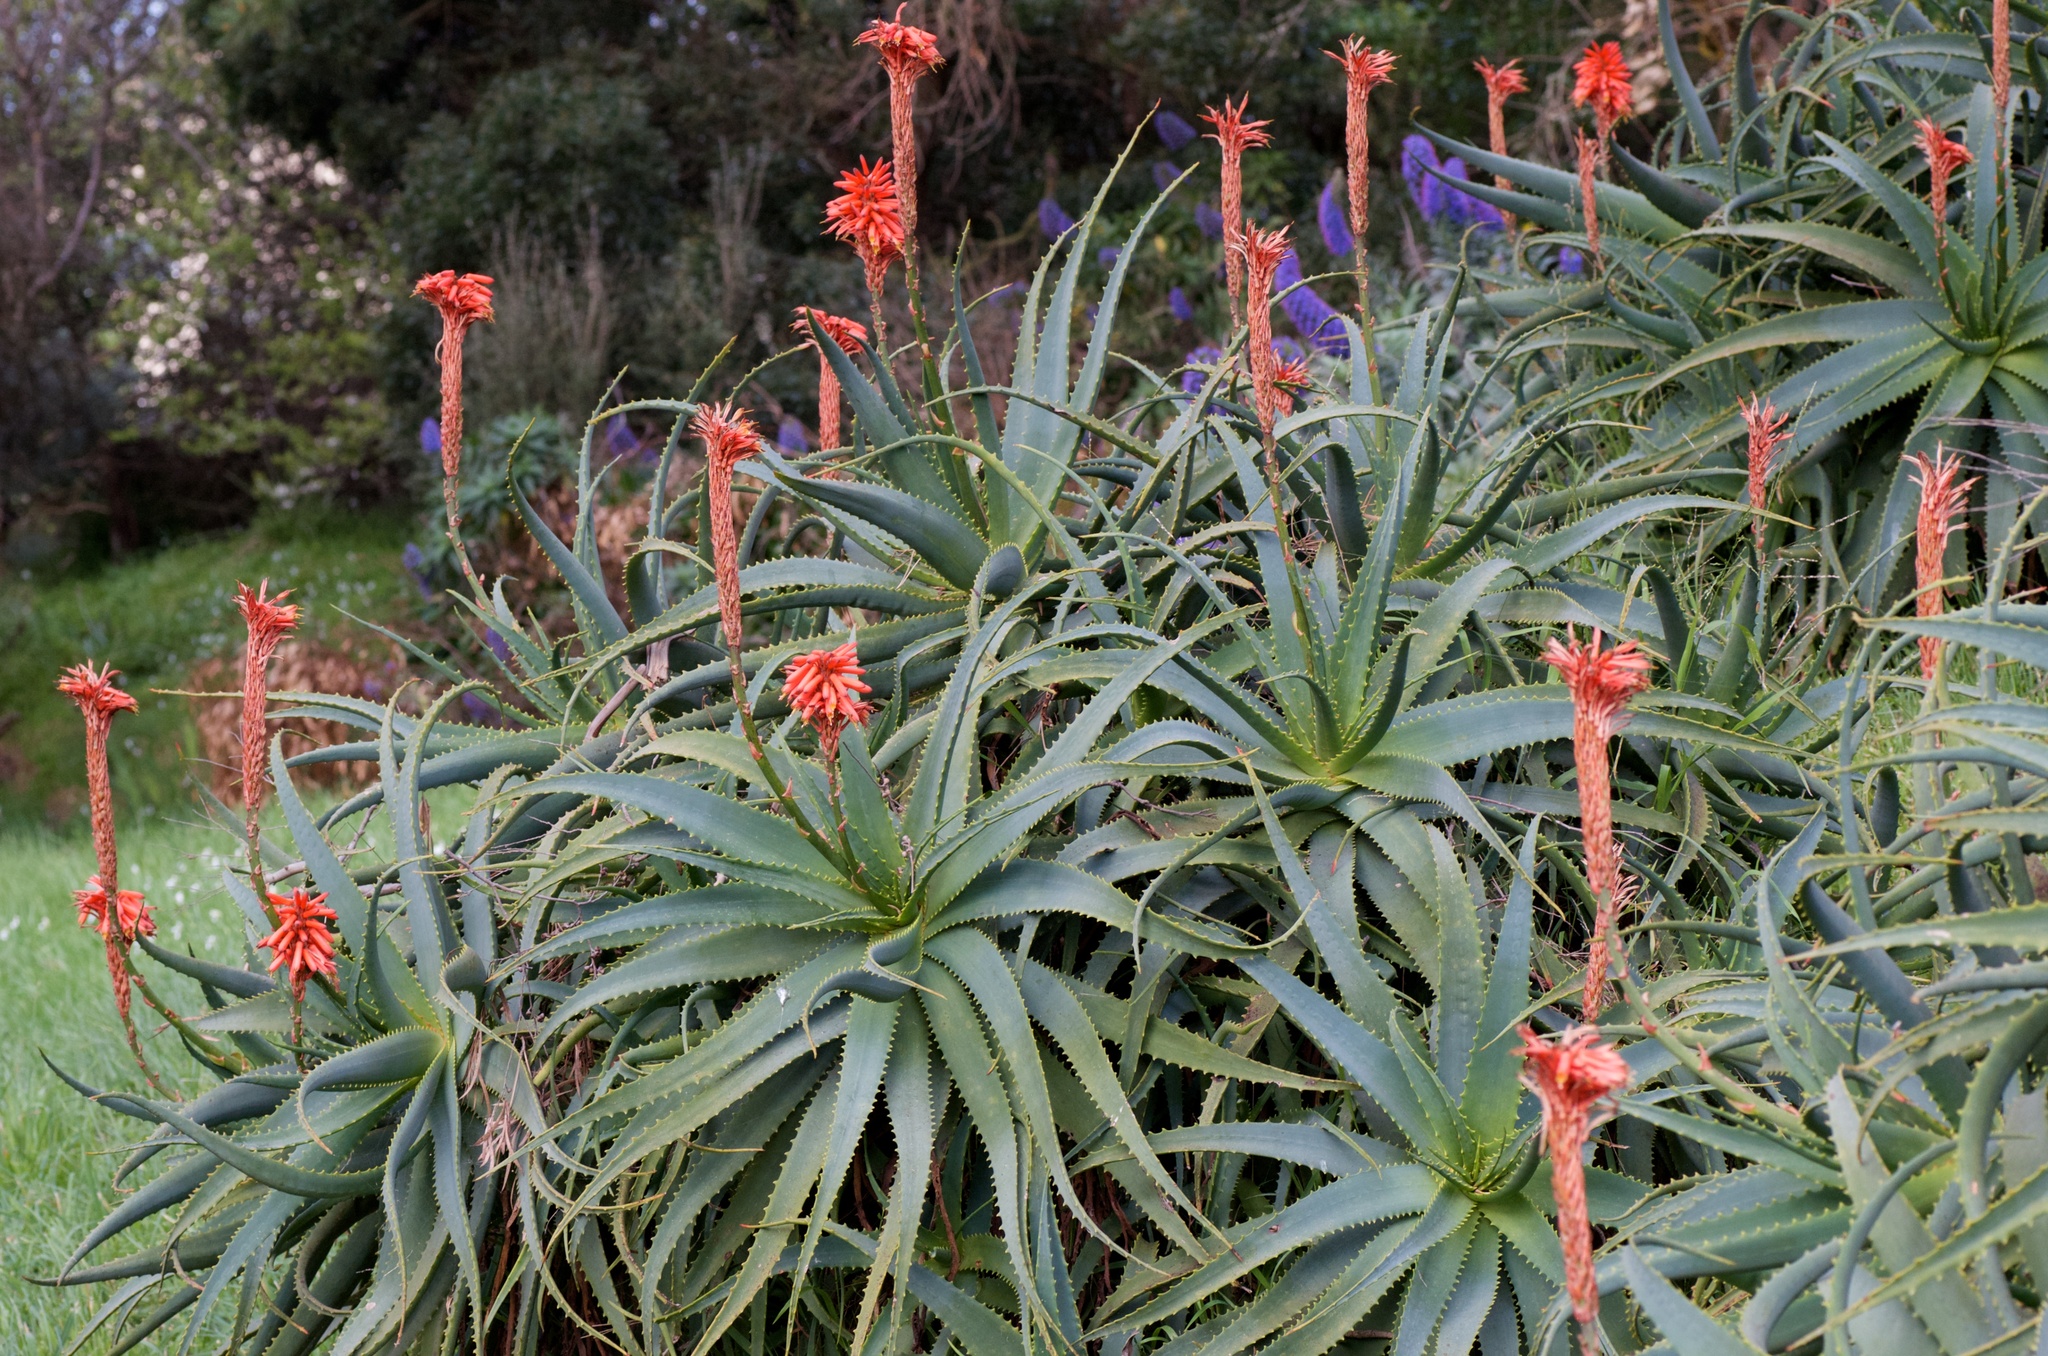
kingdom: Plantae
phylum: Tracheophyta
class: Liliopsida
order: Asparagales
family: Asphodelaceae
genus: Aloe
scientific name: Aloe arborescens
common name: Candelabra aloe
